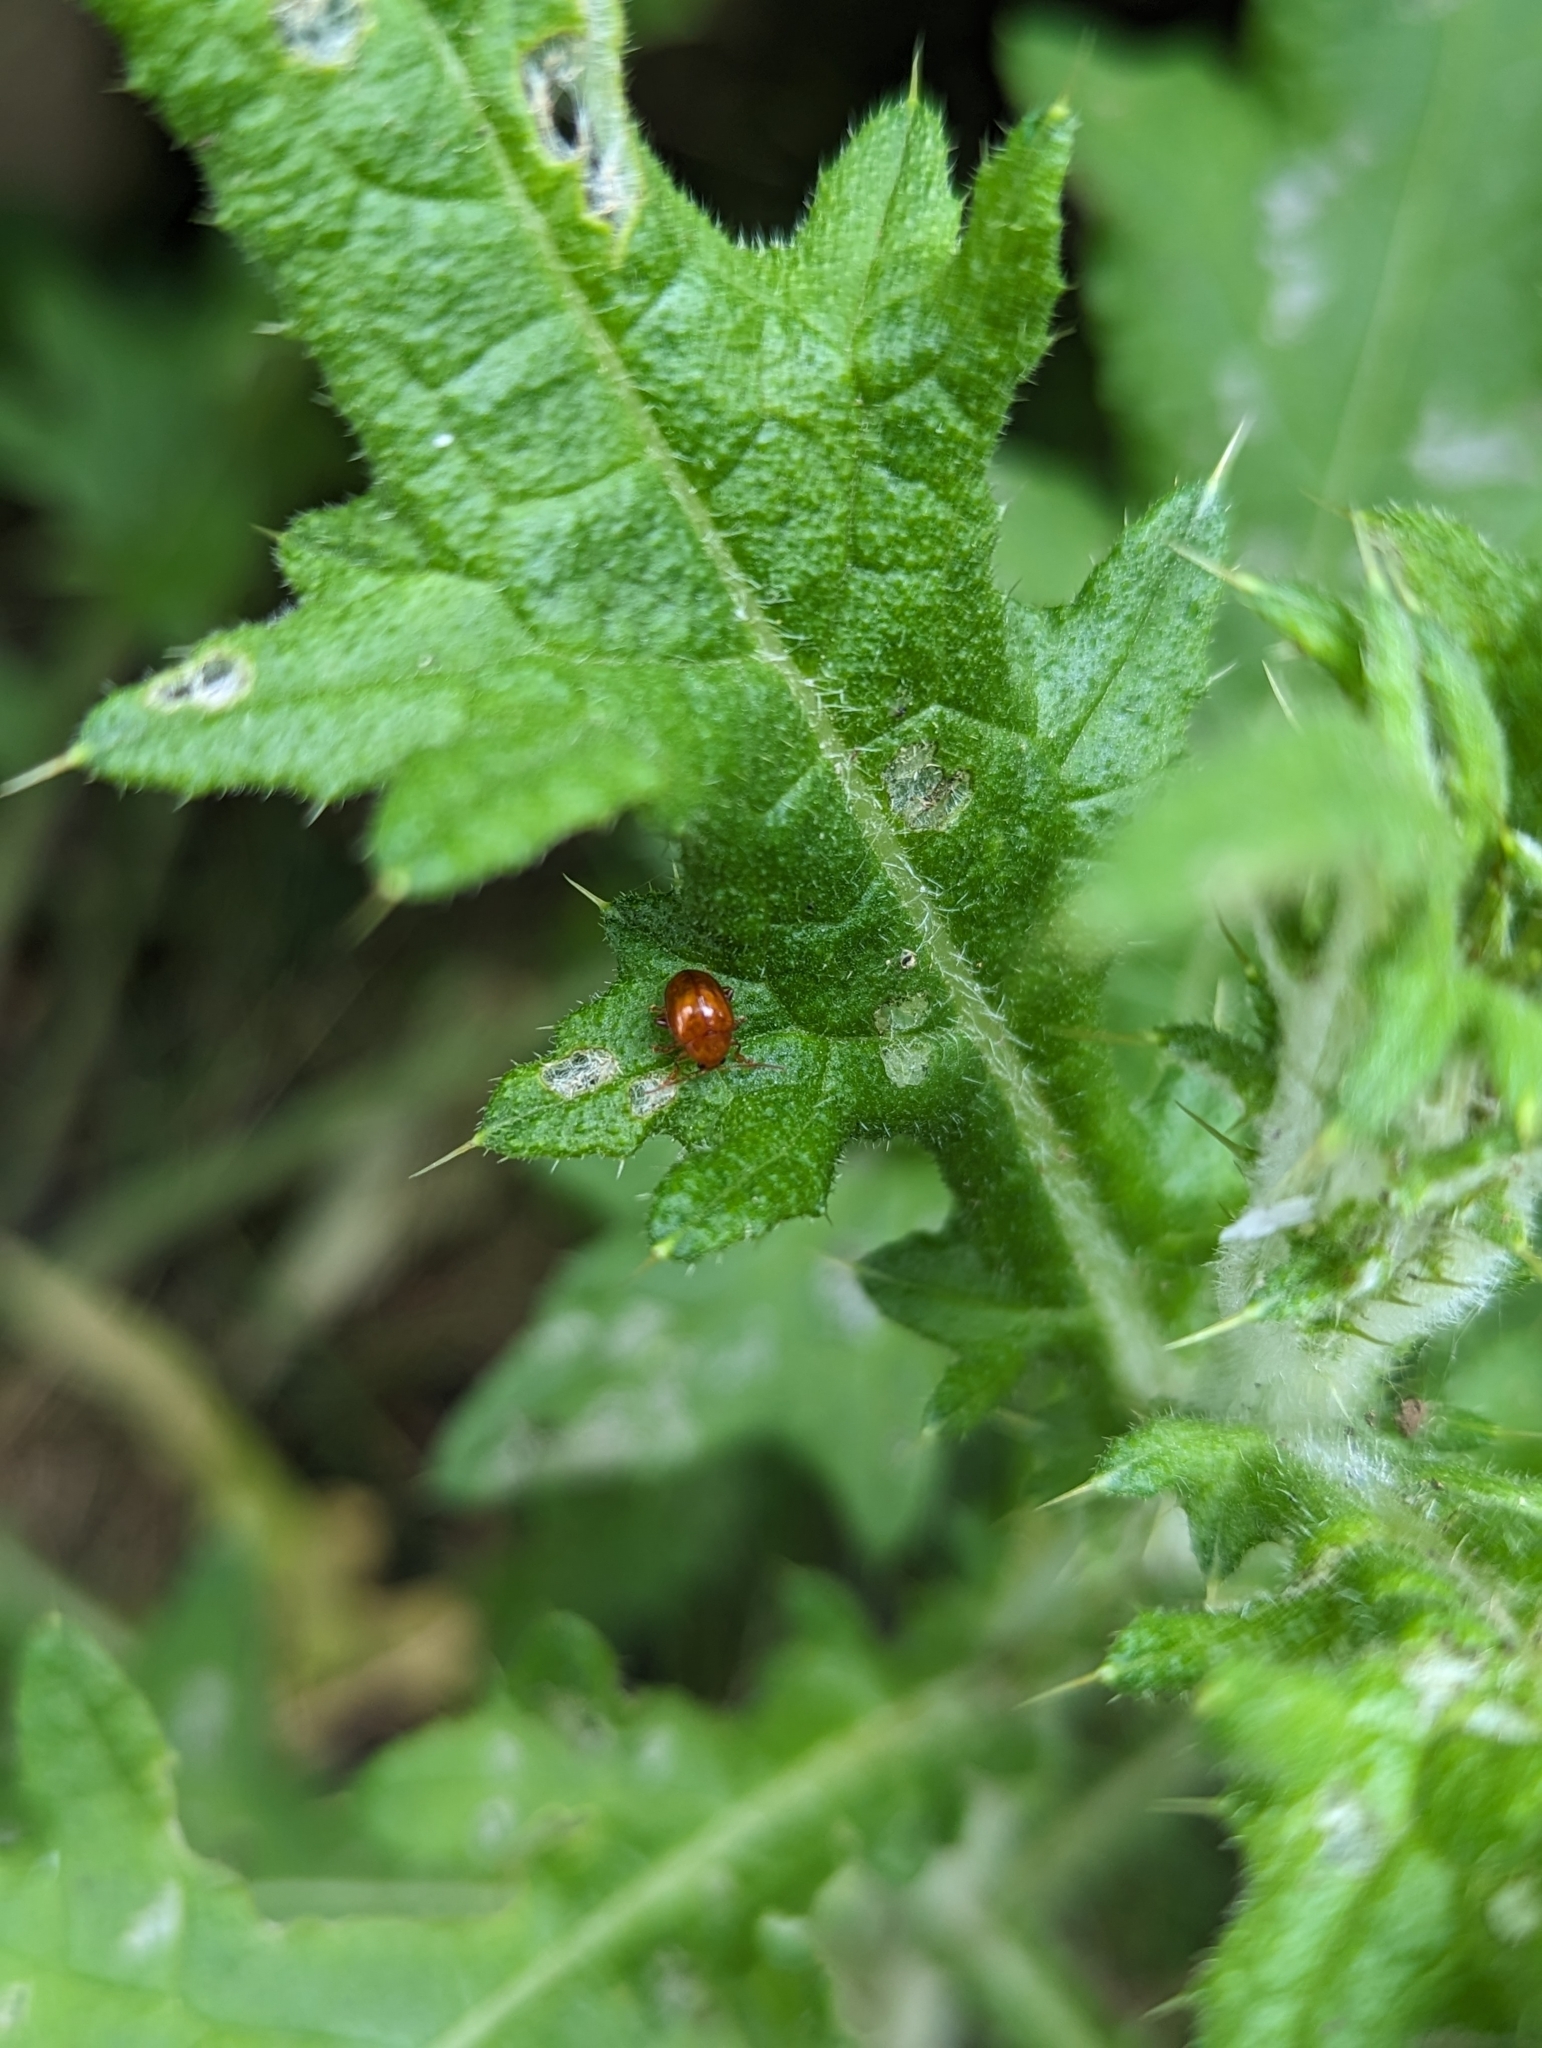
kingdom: Animalia
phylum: Arthropoda
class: Insecta
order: Coleoptera
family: Chrysomelidae
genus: Pistosia
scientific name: Pistosia testacea
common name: Leaf beetle
